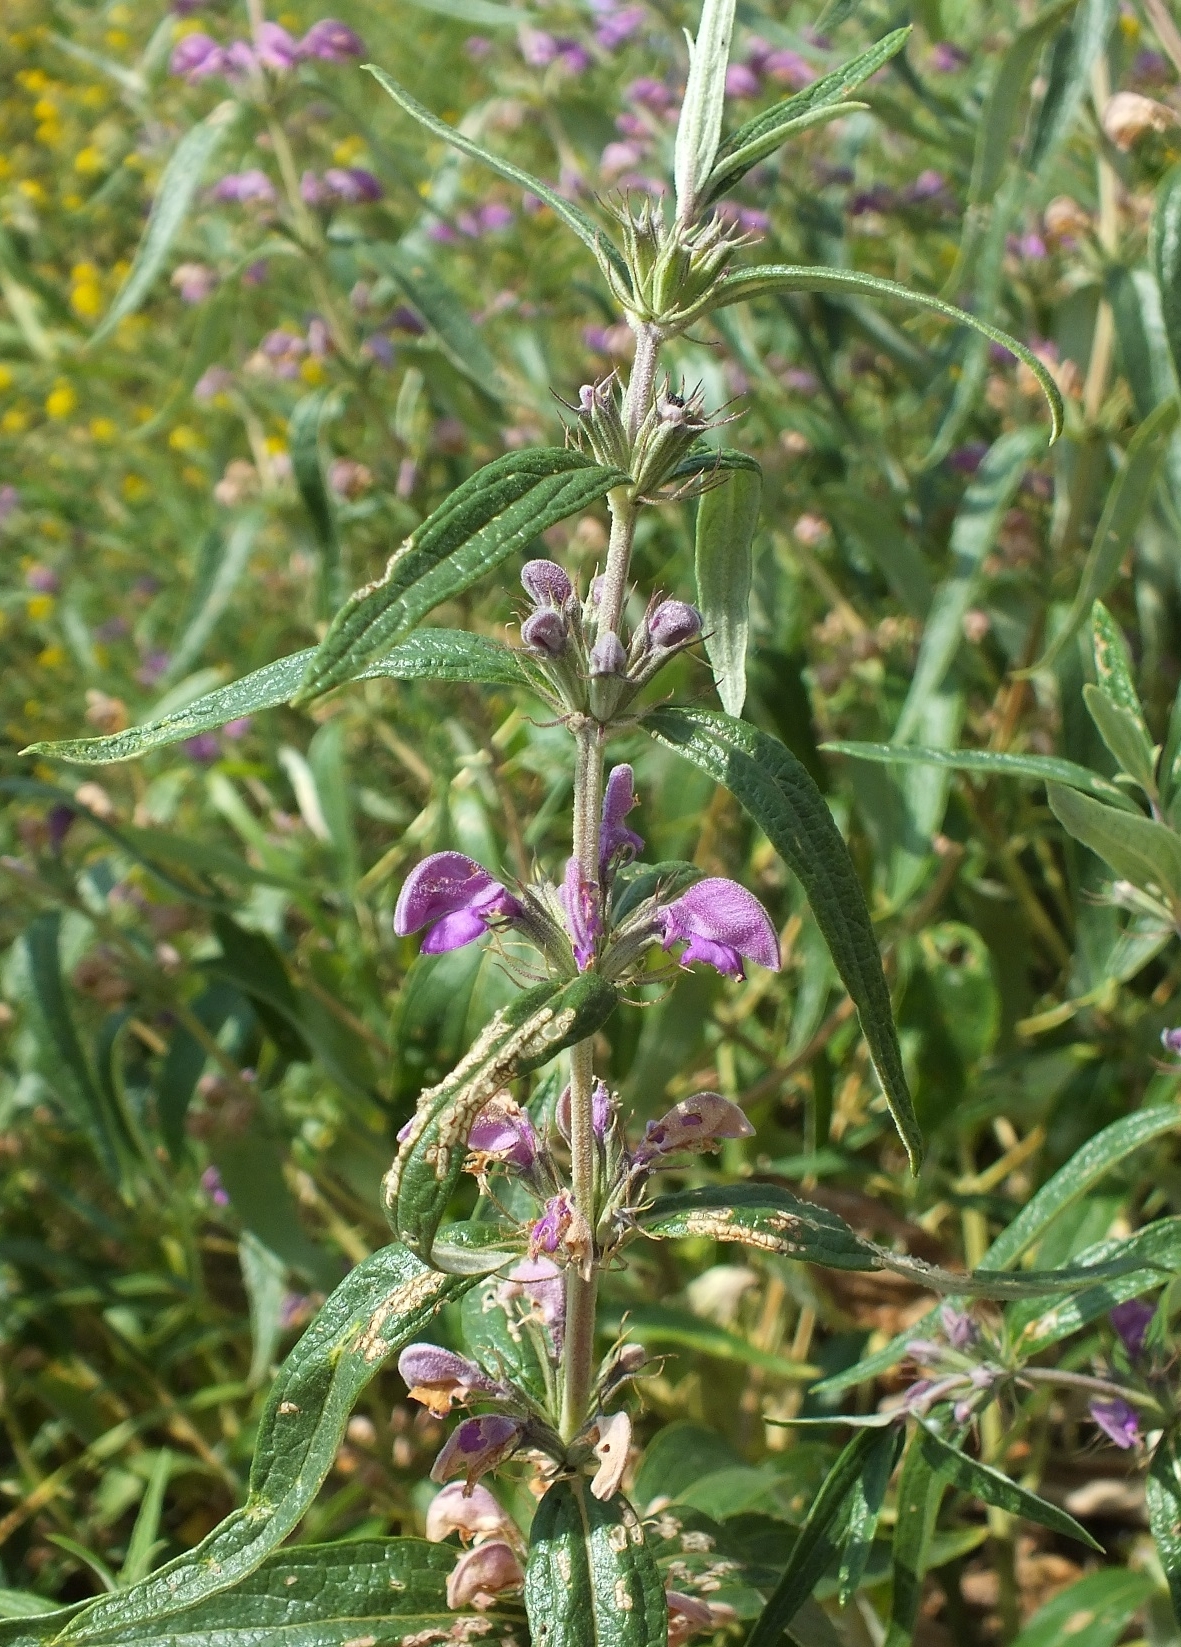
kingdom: Plantae
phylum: Tracheophyta
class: Magnoliopsida
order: Lamiales
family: Lamiaceae
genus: Phlomis
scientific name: Phlomis herba-venti
